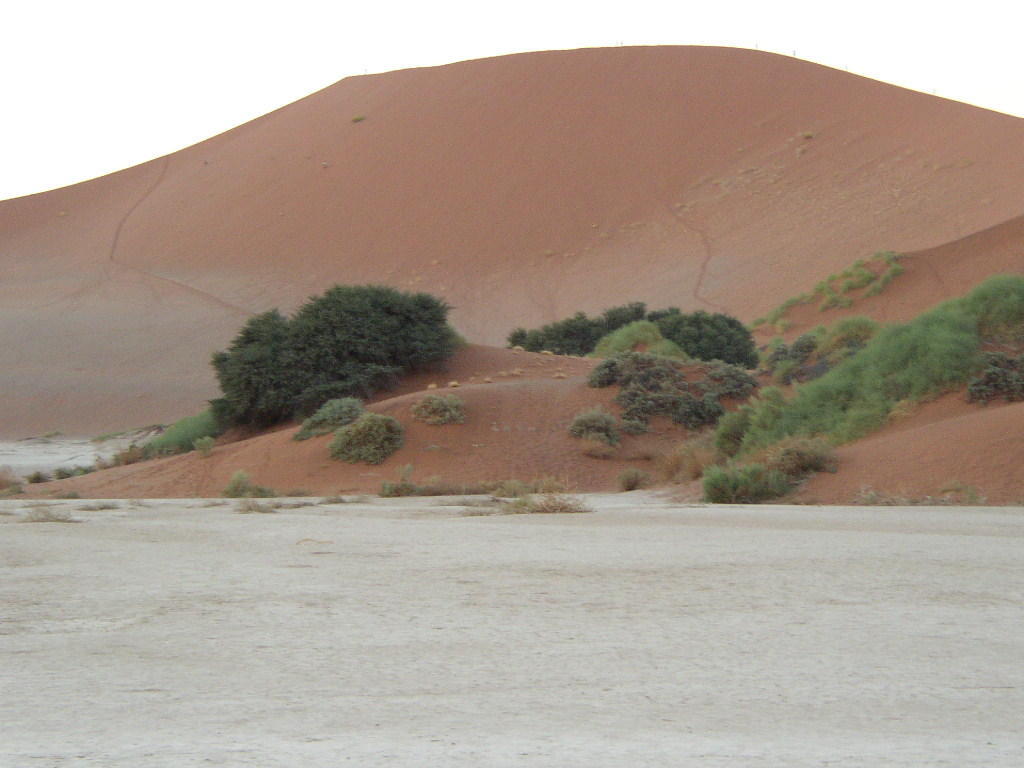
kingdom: Plantae
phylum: Tracheophyta
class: Magnoliopsida
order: Cucurbitales
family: Cucurbitaceae
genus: Acanthosicyos
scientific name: Acanthosicyos horridus
